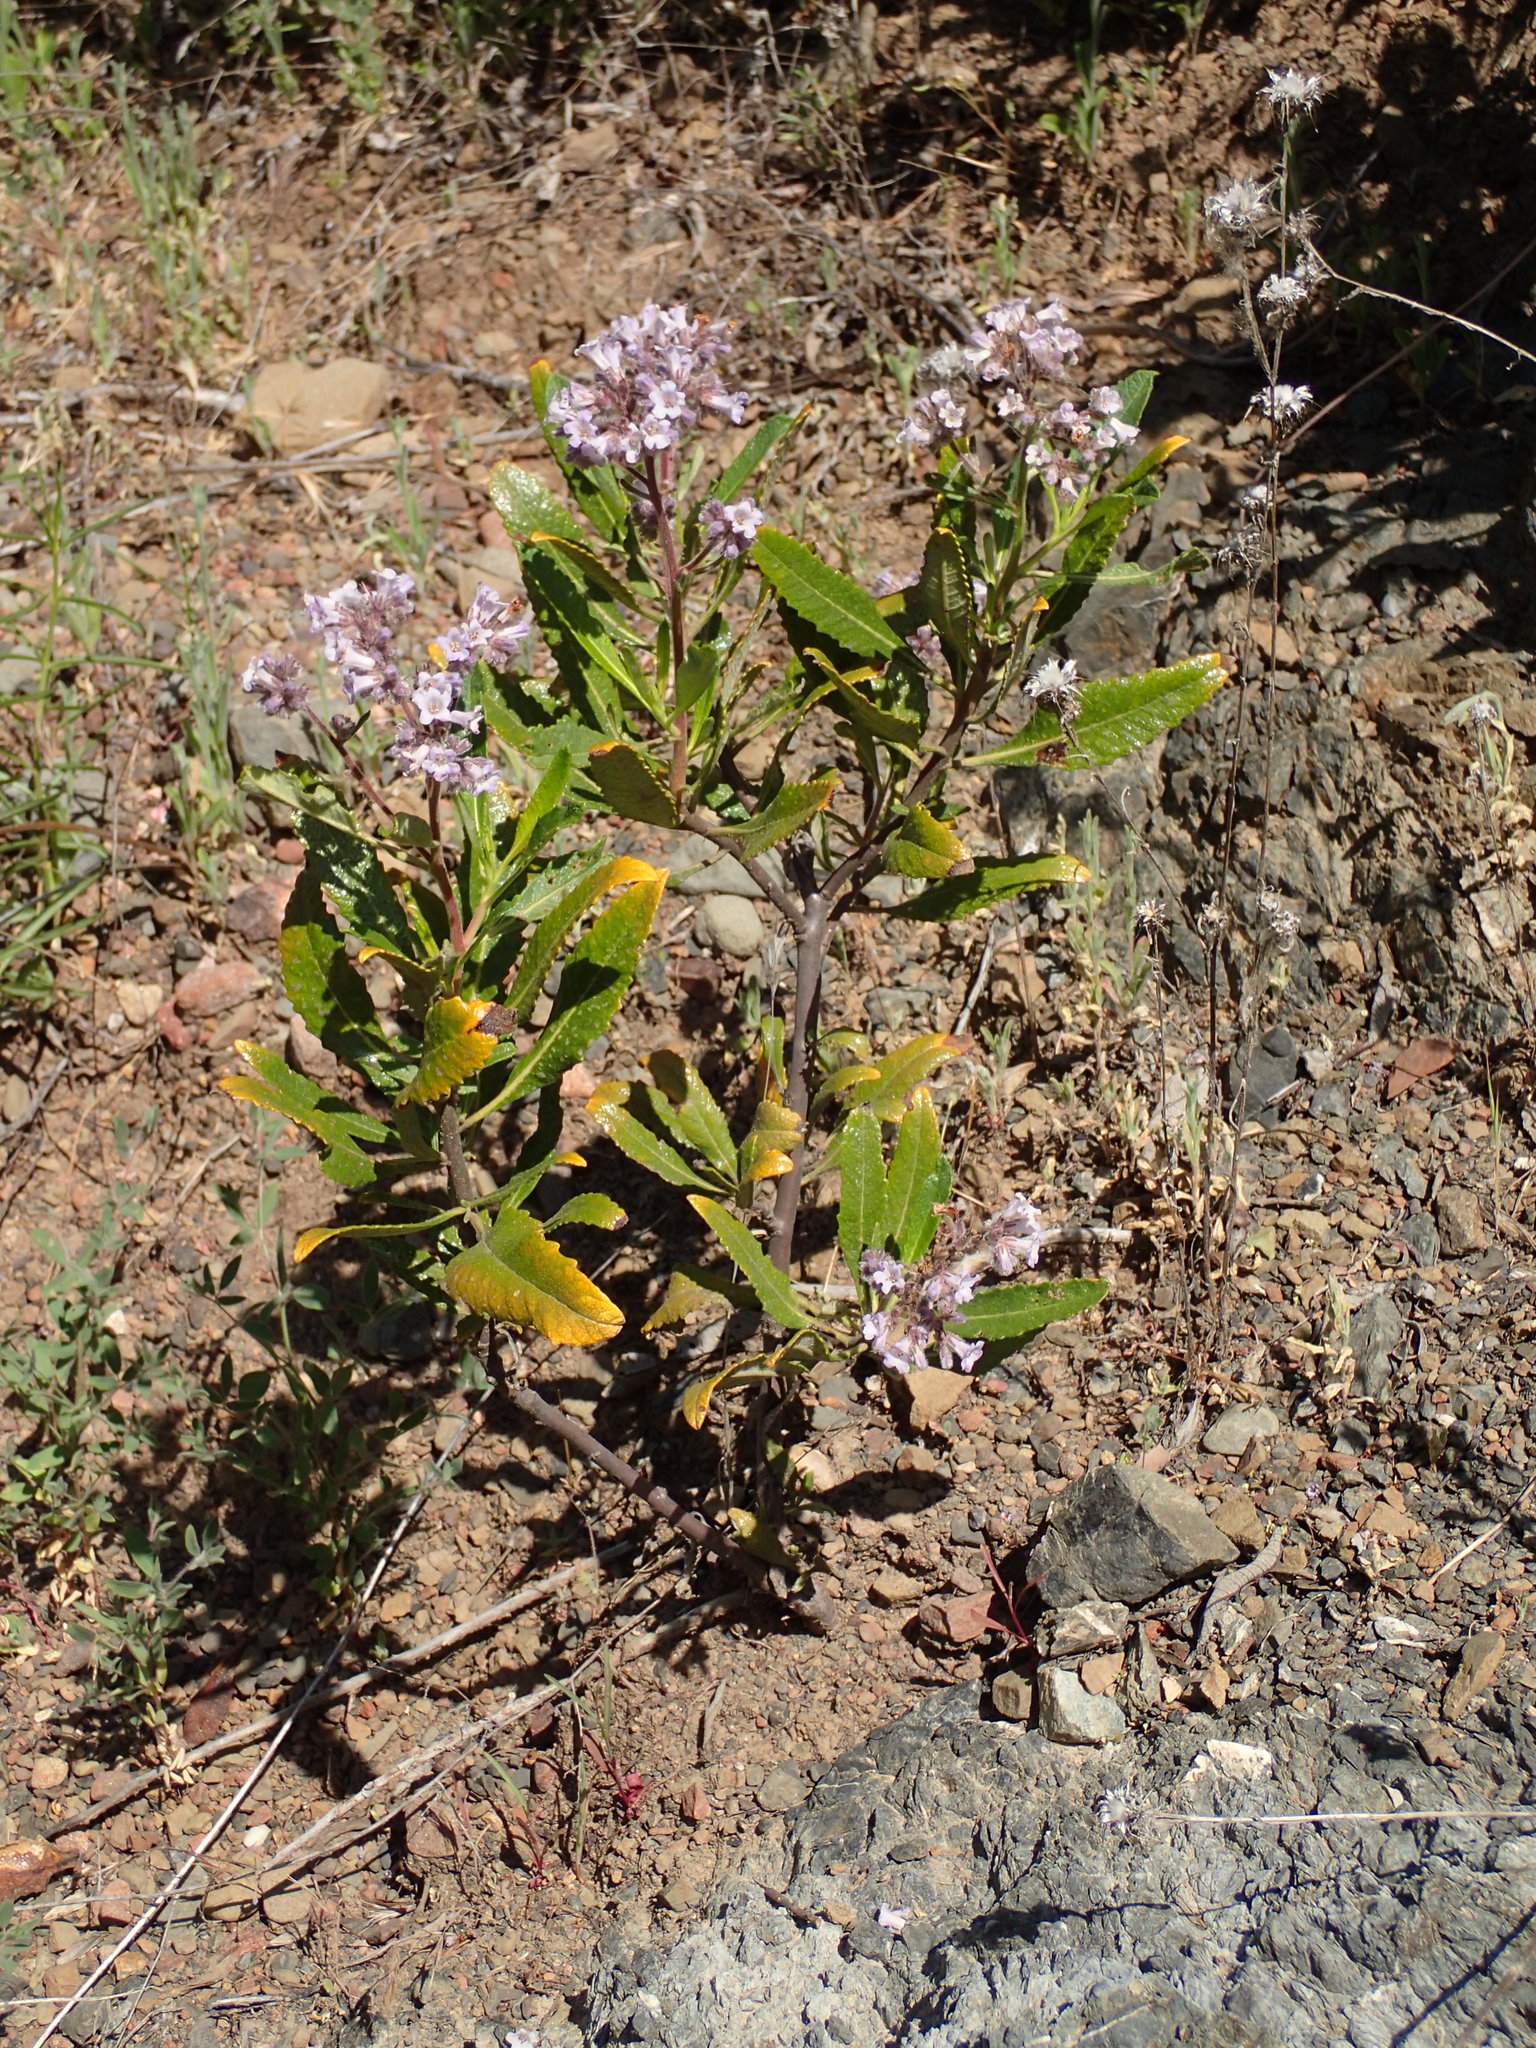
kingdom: Plantae
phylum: Tracheophyta
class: Magnoliopsida
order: Boraginales
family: Namaceae
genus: Eriodictyon
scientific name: Eriodictyon crassifolium
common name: Thick-leaf yerba-santa
